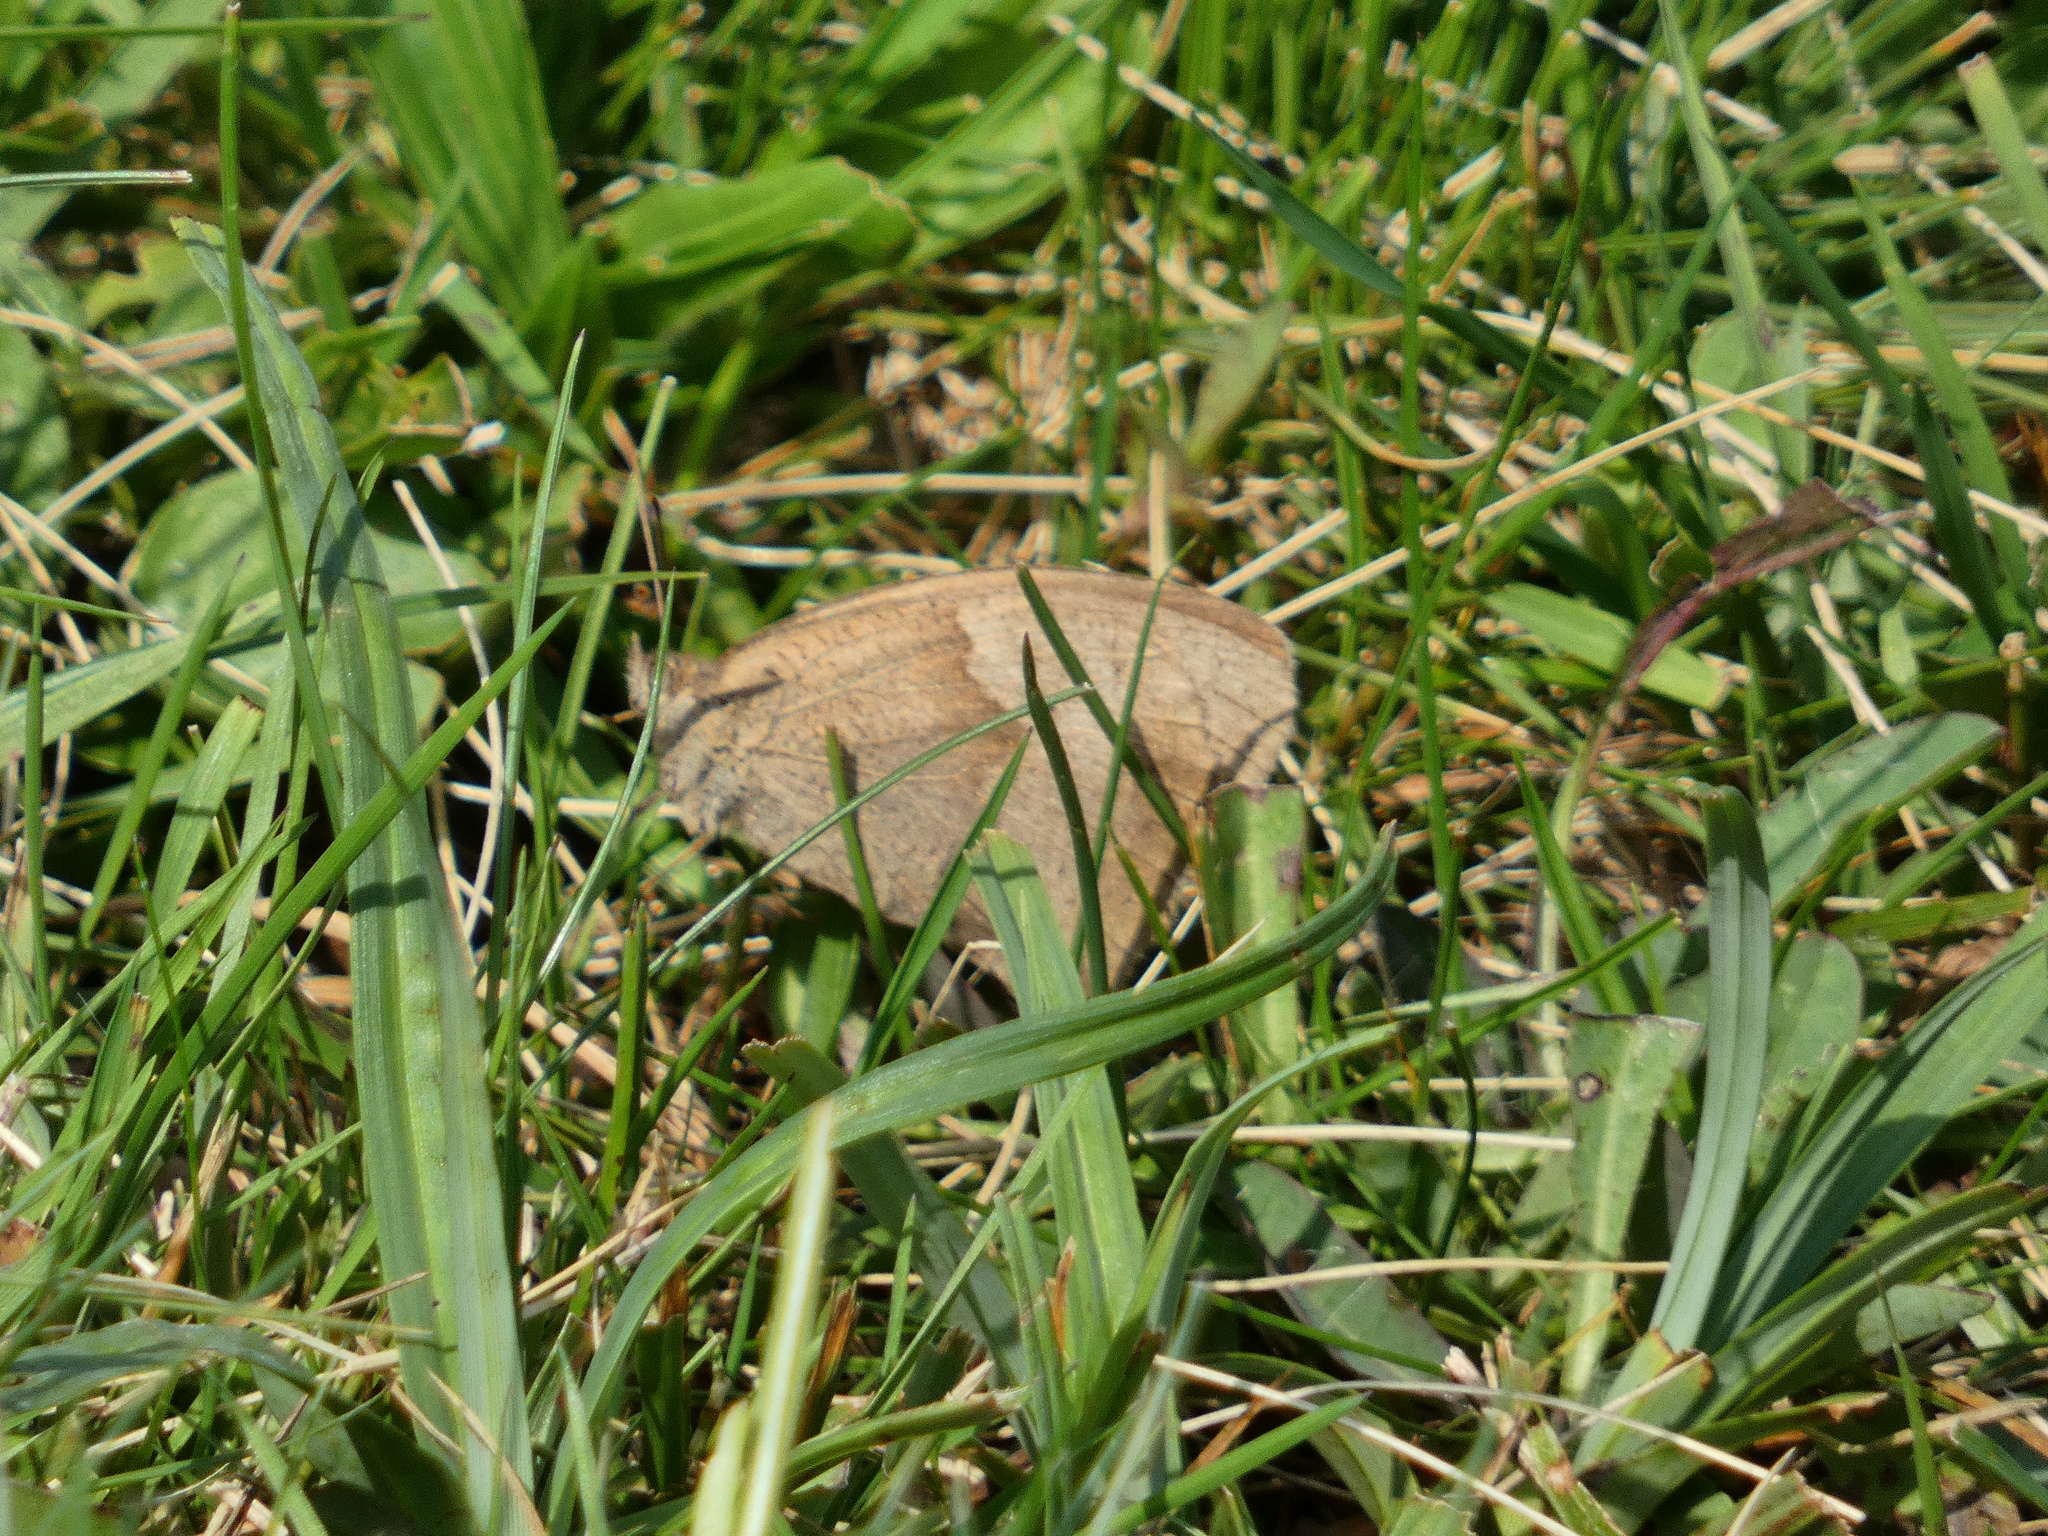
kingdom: Animalia
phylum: Arthropoda
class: Insecta
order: Lepidoptera
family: Nymphalidae
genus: Maniola
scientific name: Maniola jurtina
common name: Meadow brown
